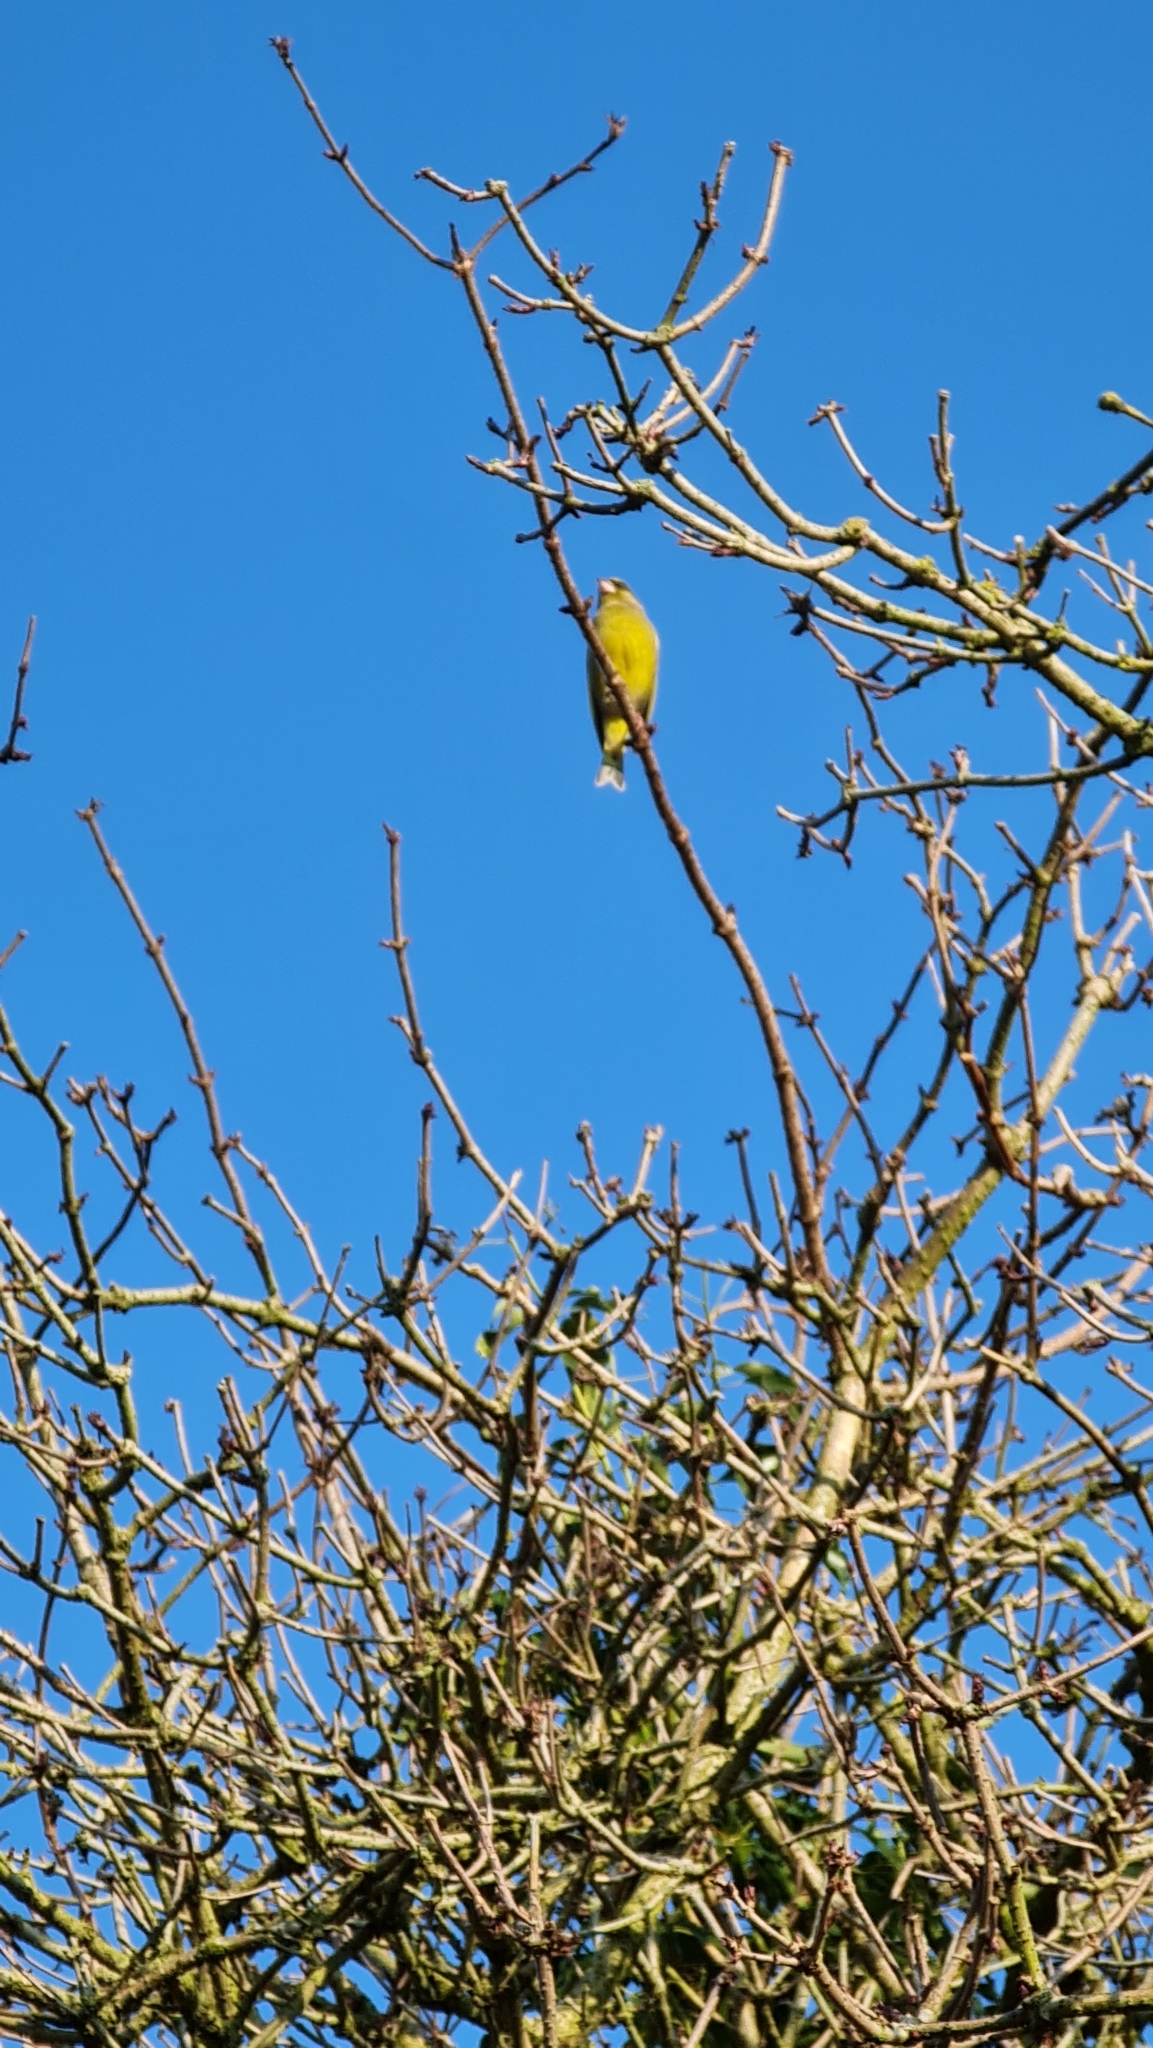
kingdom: Plantae
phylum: Tracheophyta
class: Liliopsida
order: Poales
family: Poaceae
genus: Chloris
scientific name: Chloris chloris
